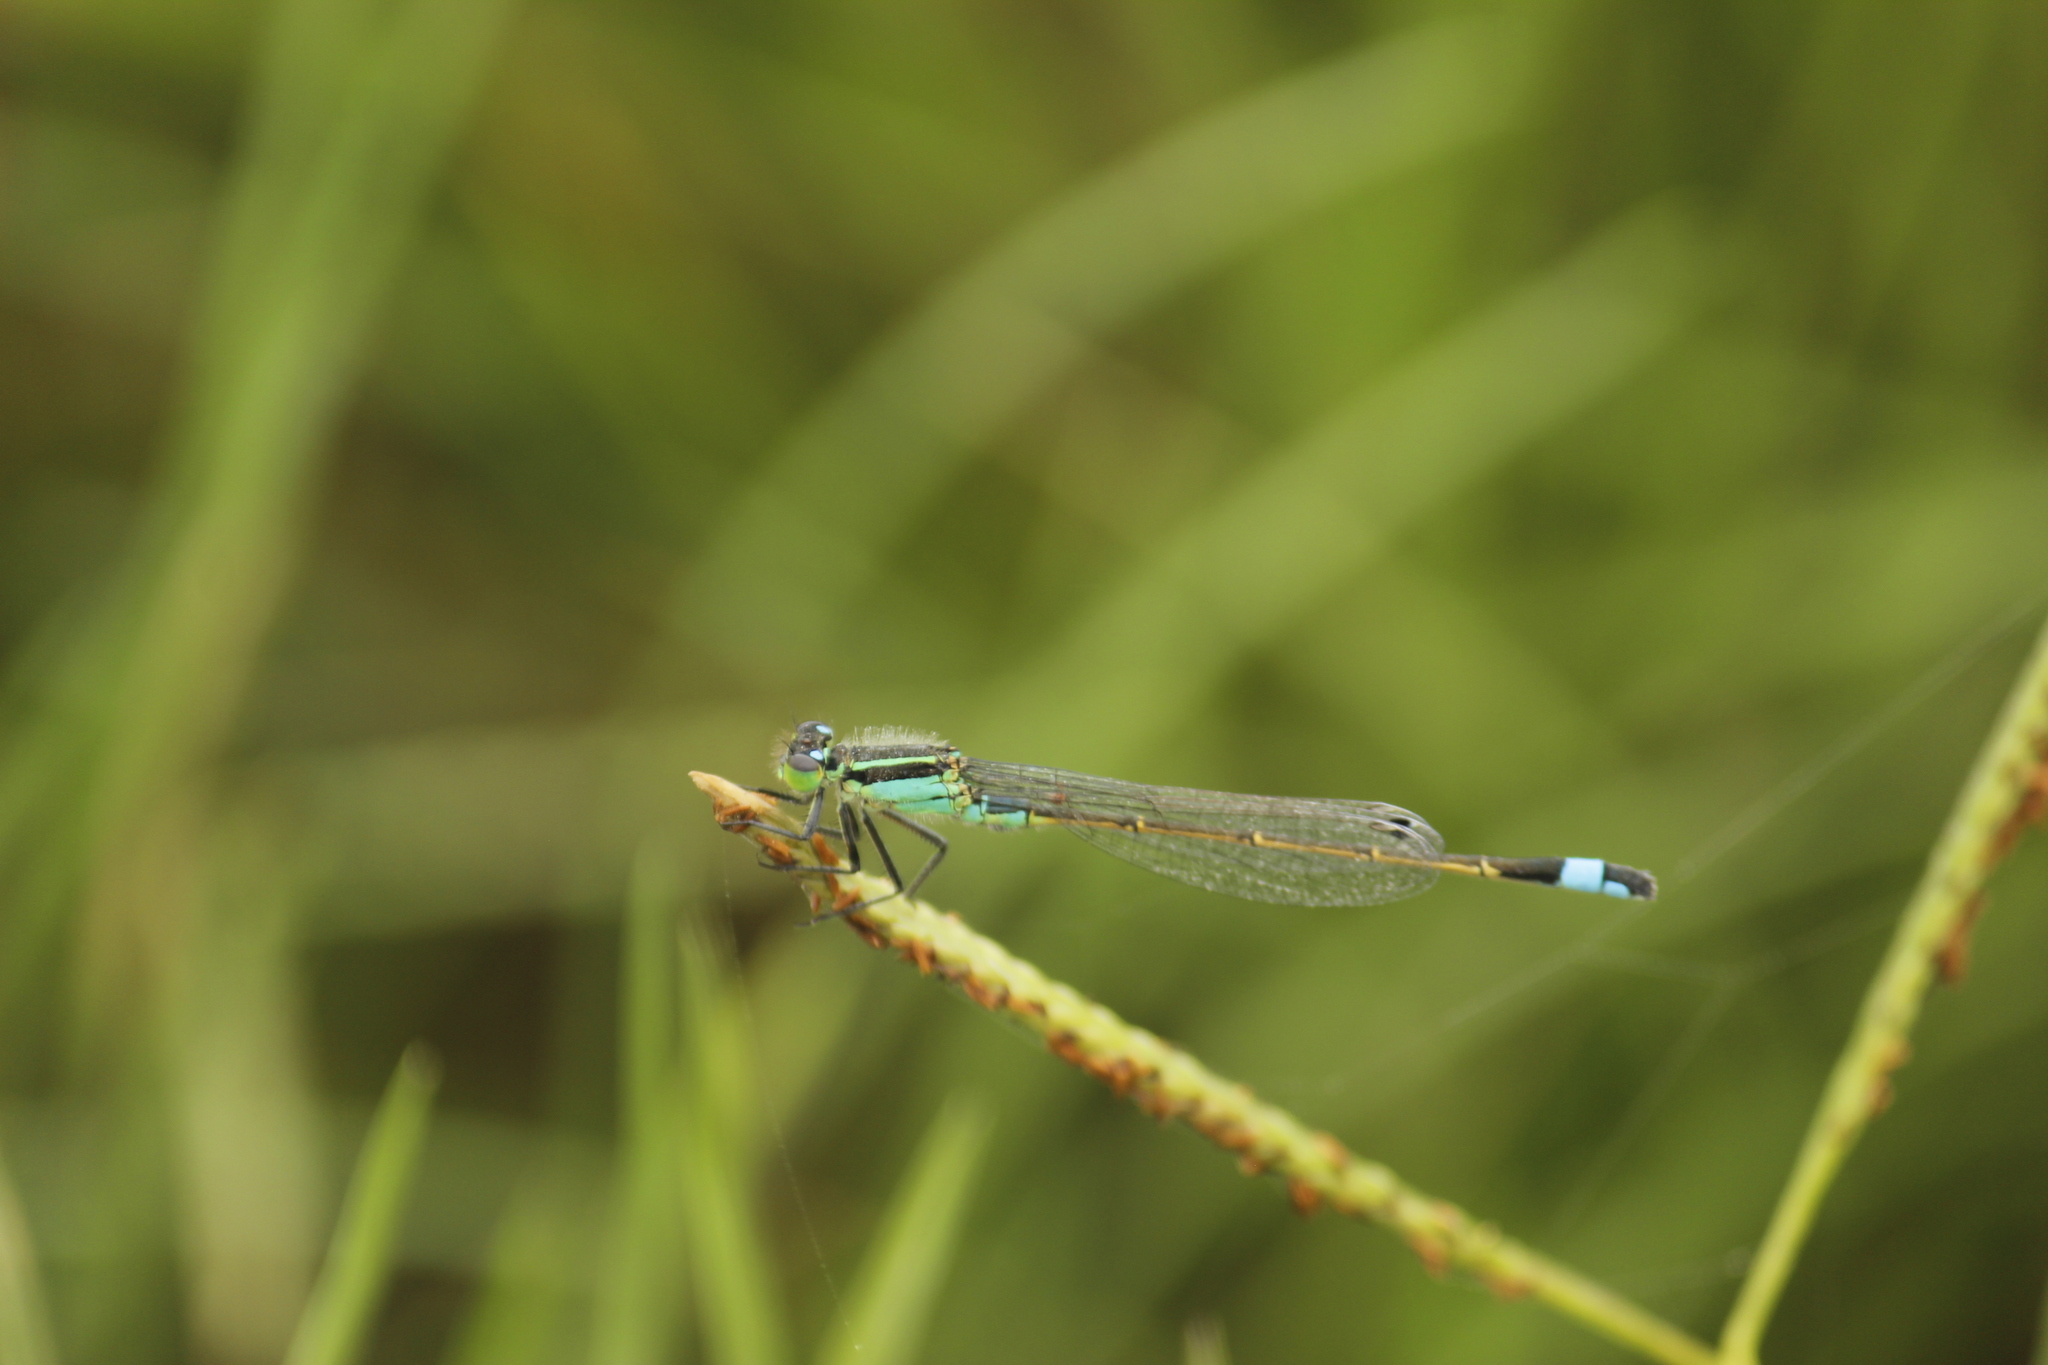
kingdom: Animalia
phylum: Arthropoda
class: Insecta
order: Odonata
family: Coenagrionidae
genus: Ischnura
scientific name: Ischnura ramburii
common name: Rambur's forktail
